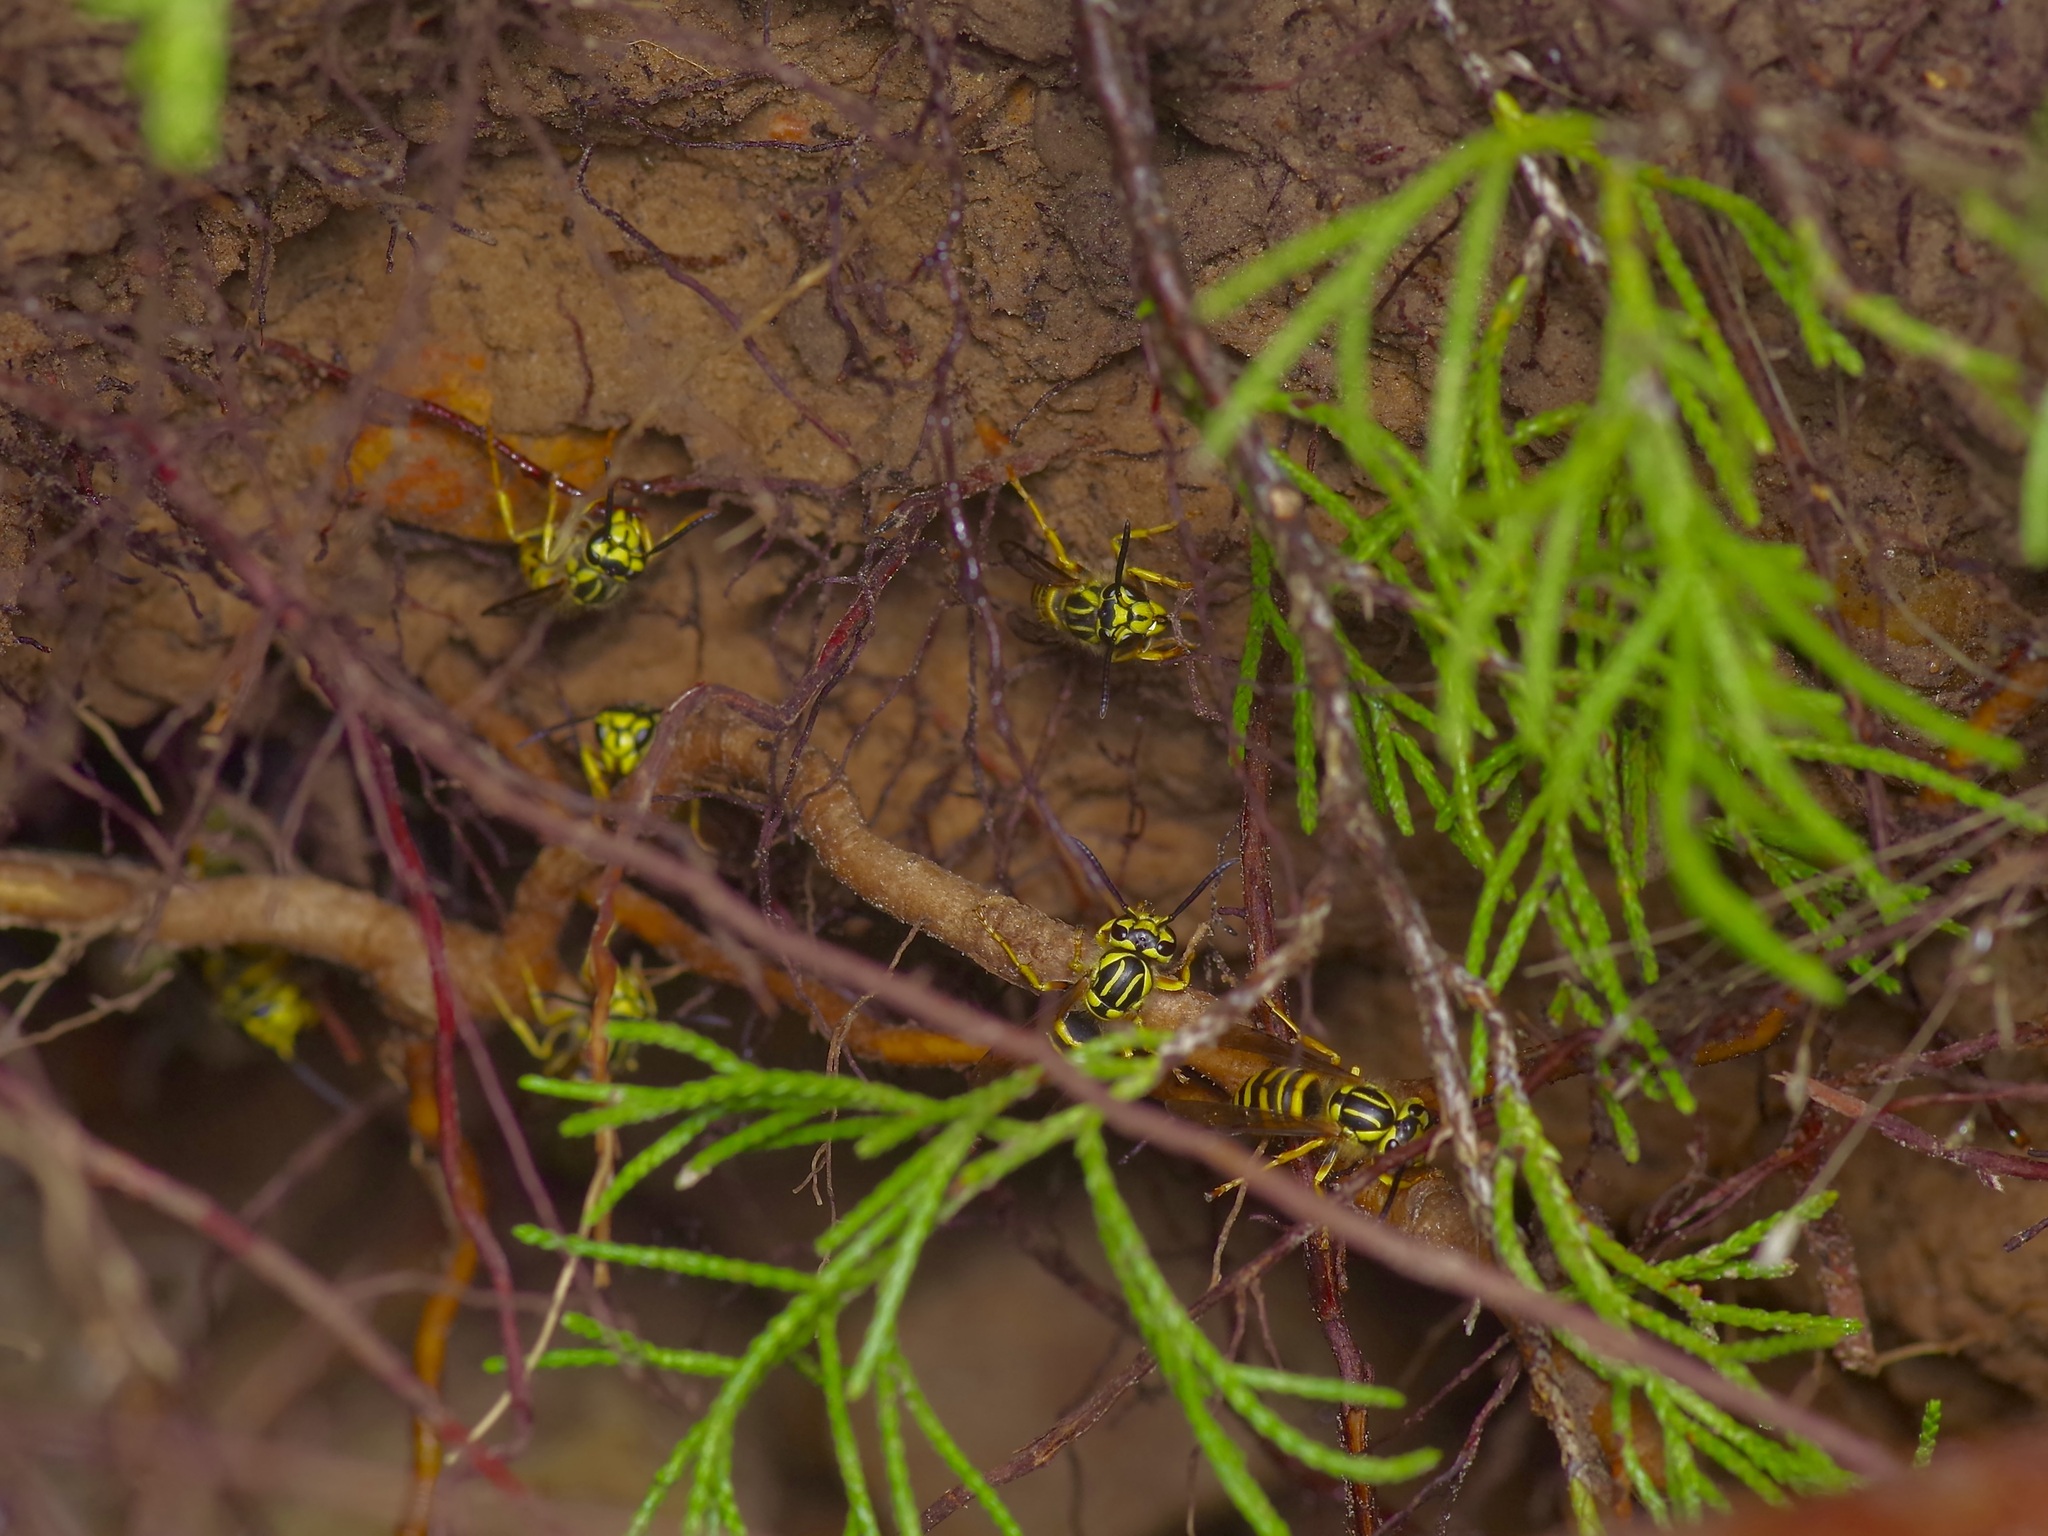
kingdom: Animalia
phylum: Arthropoda
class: Insecta
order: Hymenoptera
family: Vespidae
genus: Vespula
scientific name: Vespula squamosa
